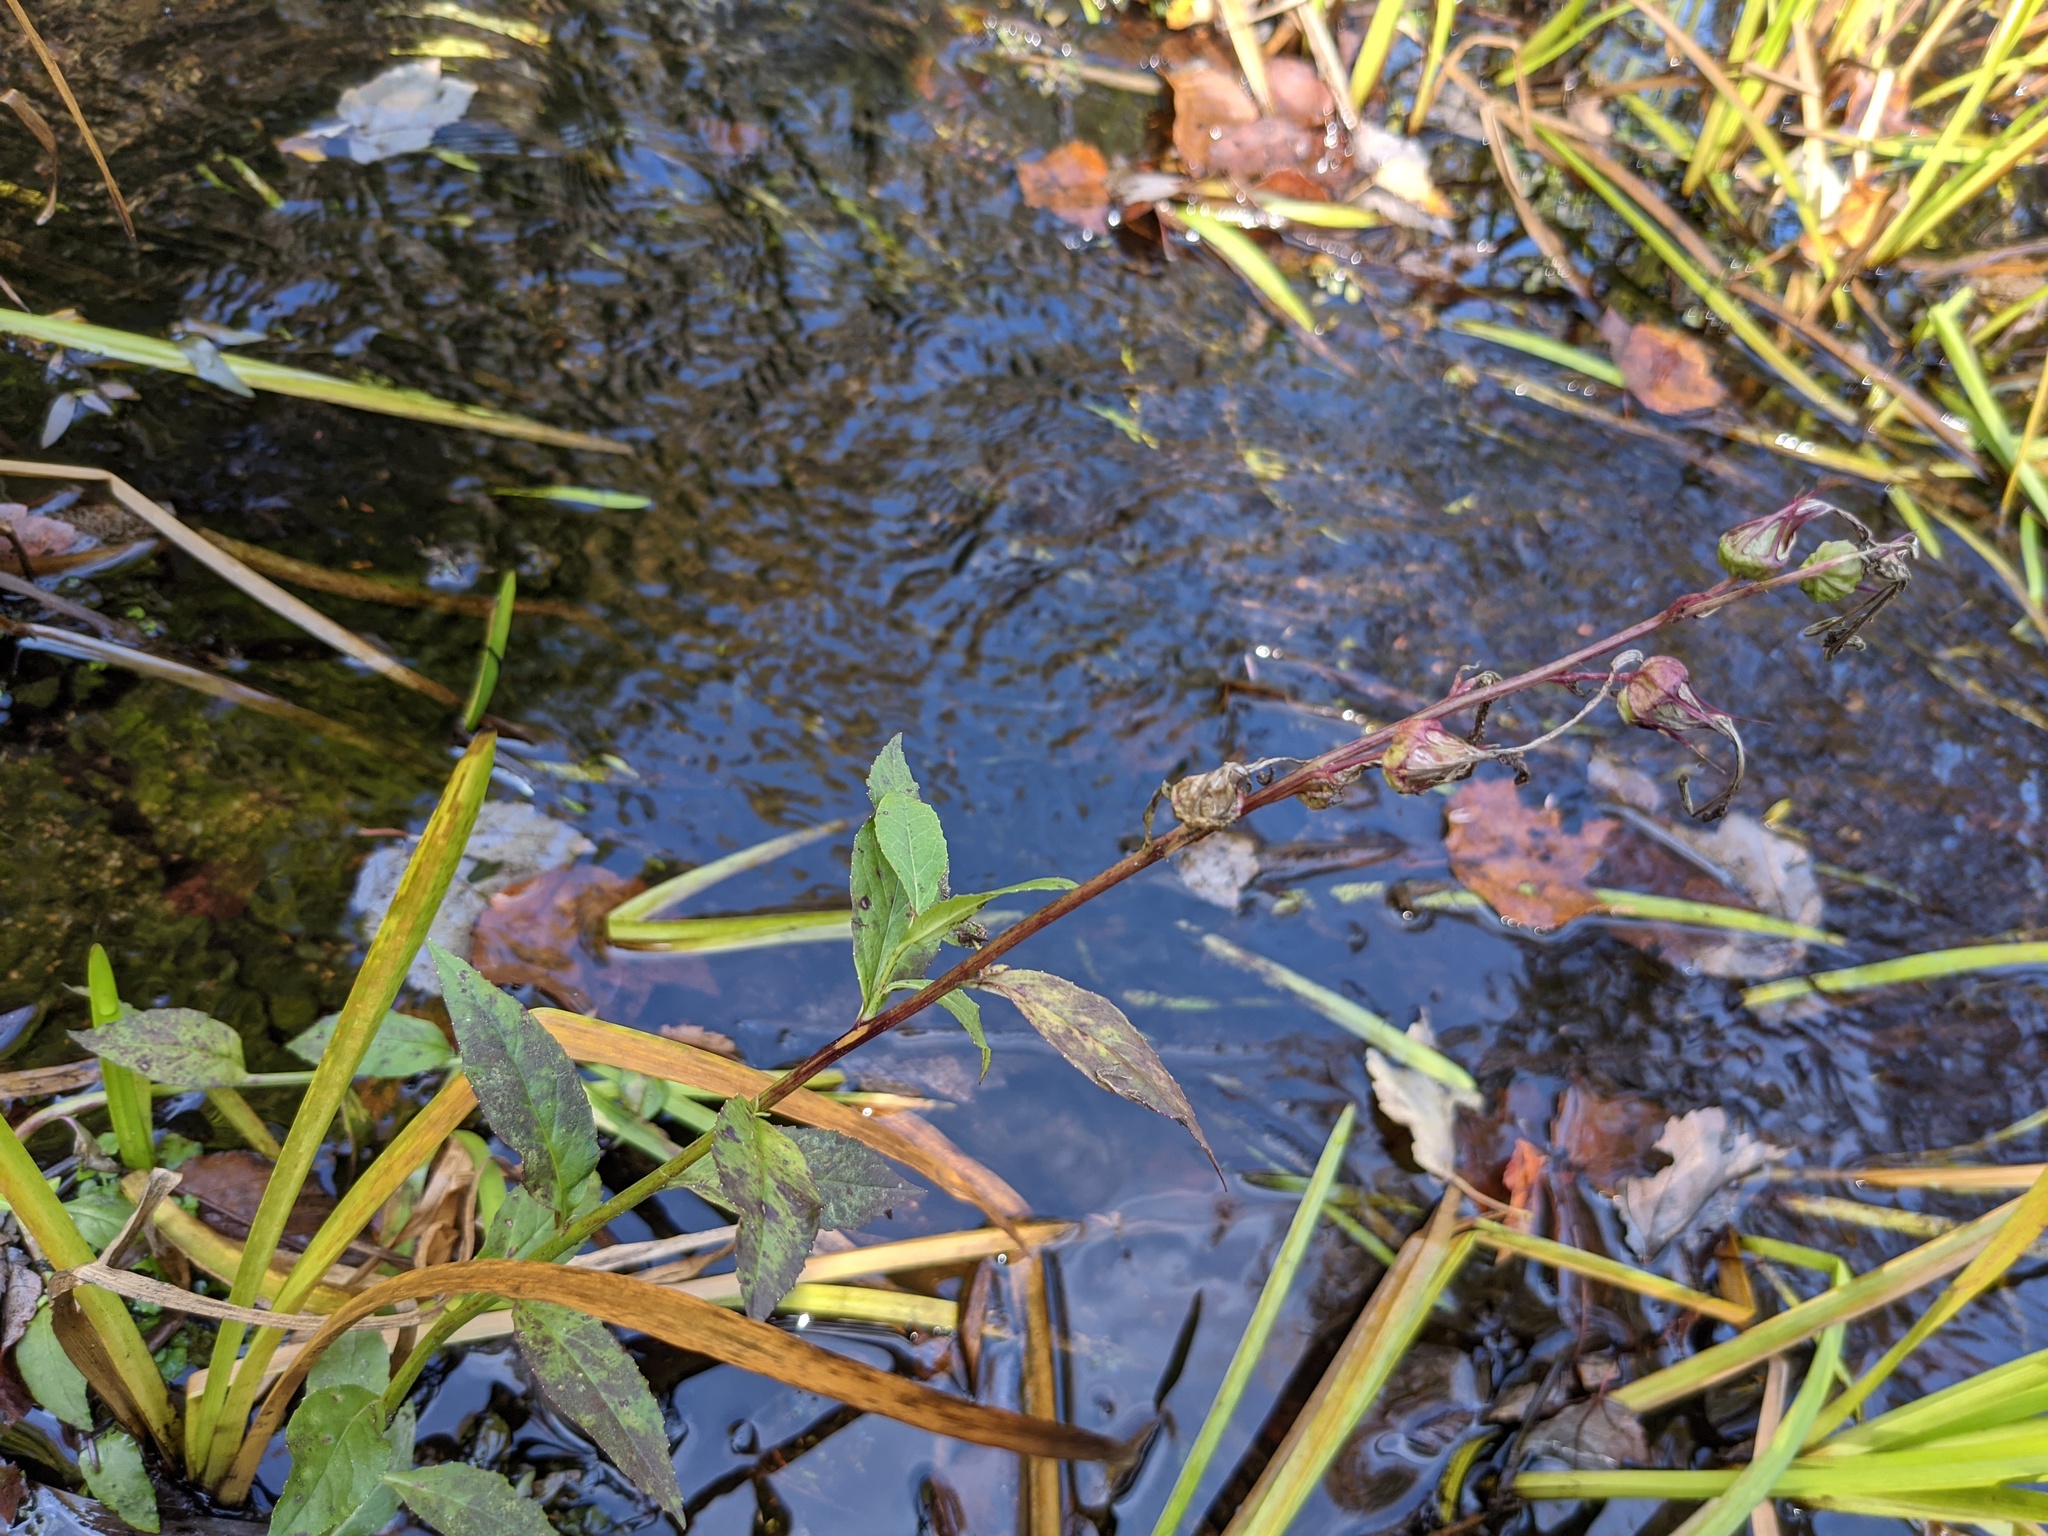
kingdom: Plantae
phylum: Tracheophyta
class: Magnoliopsida
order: Asterales
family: Campanulaceae
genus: Lobelia
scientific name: Lobelia cardinalis
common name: Cardinal flower
